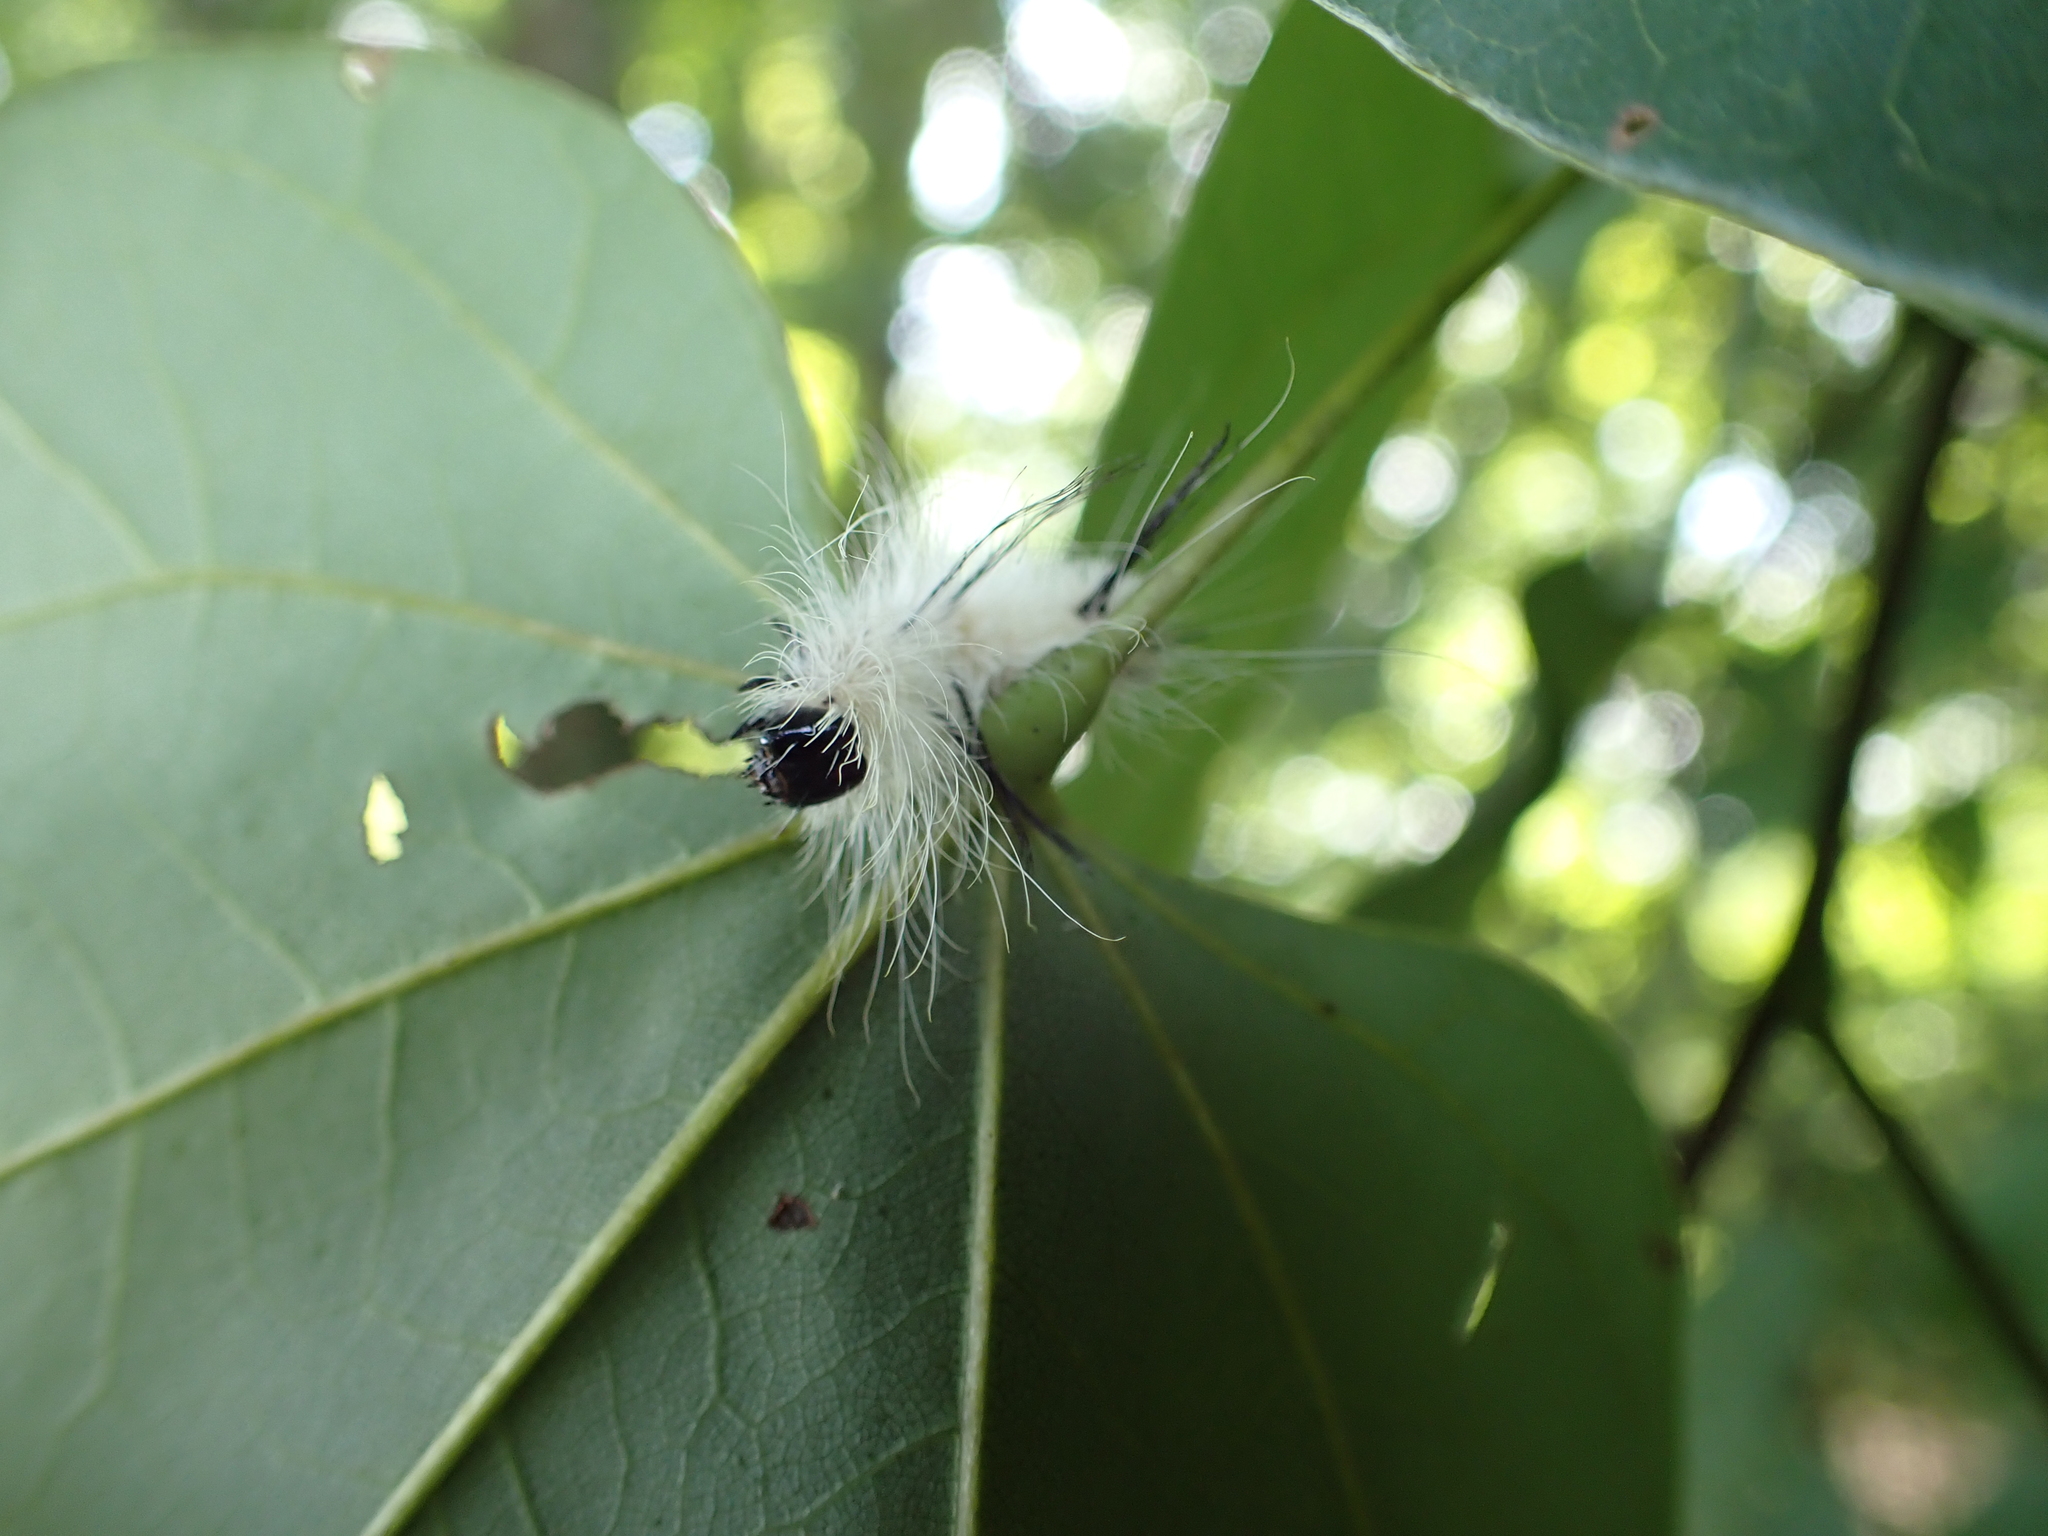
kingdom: Animalia
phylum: Arthropoda
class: Insecta
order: Lepidoptera
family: Noctuidae
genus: Acronicta
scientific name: Acronicta americana
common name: American dagger
